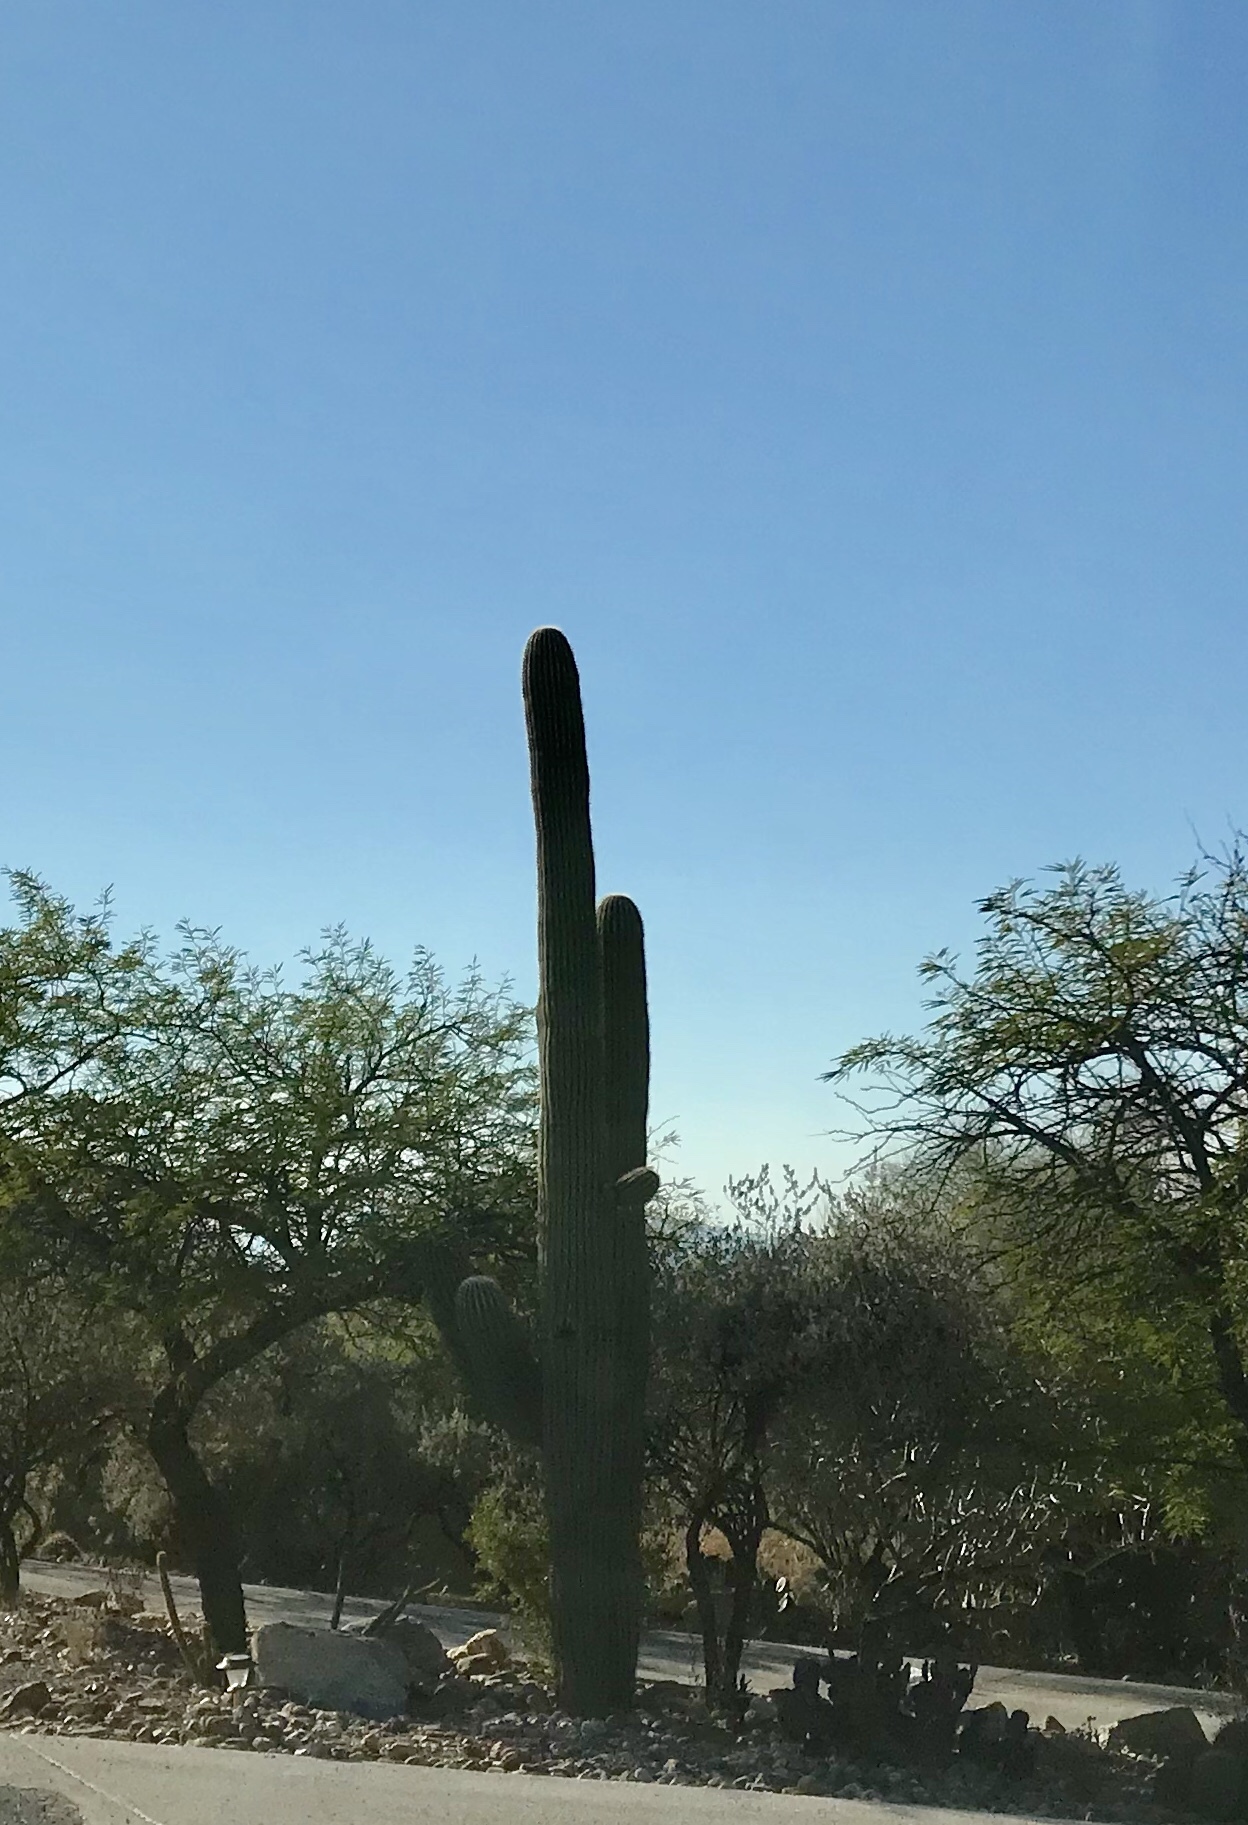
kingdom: Plantae
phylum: Tracheophyta
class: Magnoliopsida
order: Caryophyllales
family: Cactaceae
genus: Carnegiea
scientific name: Carnegiea gigantea
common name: Saguaro
